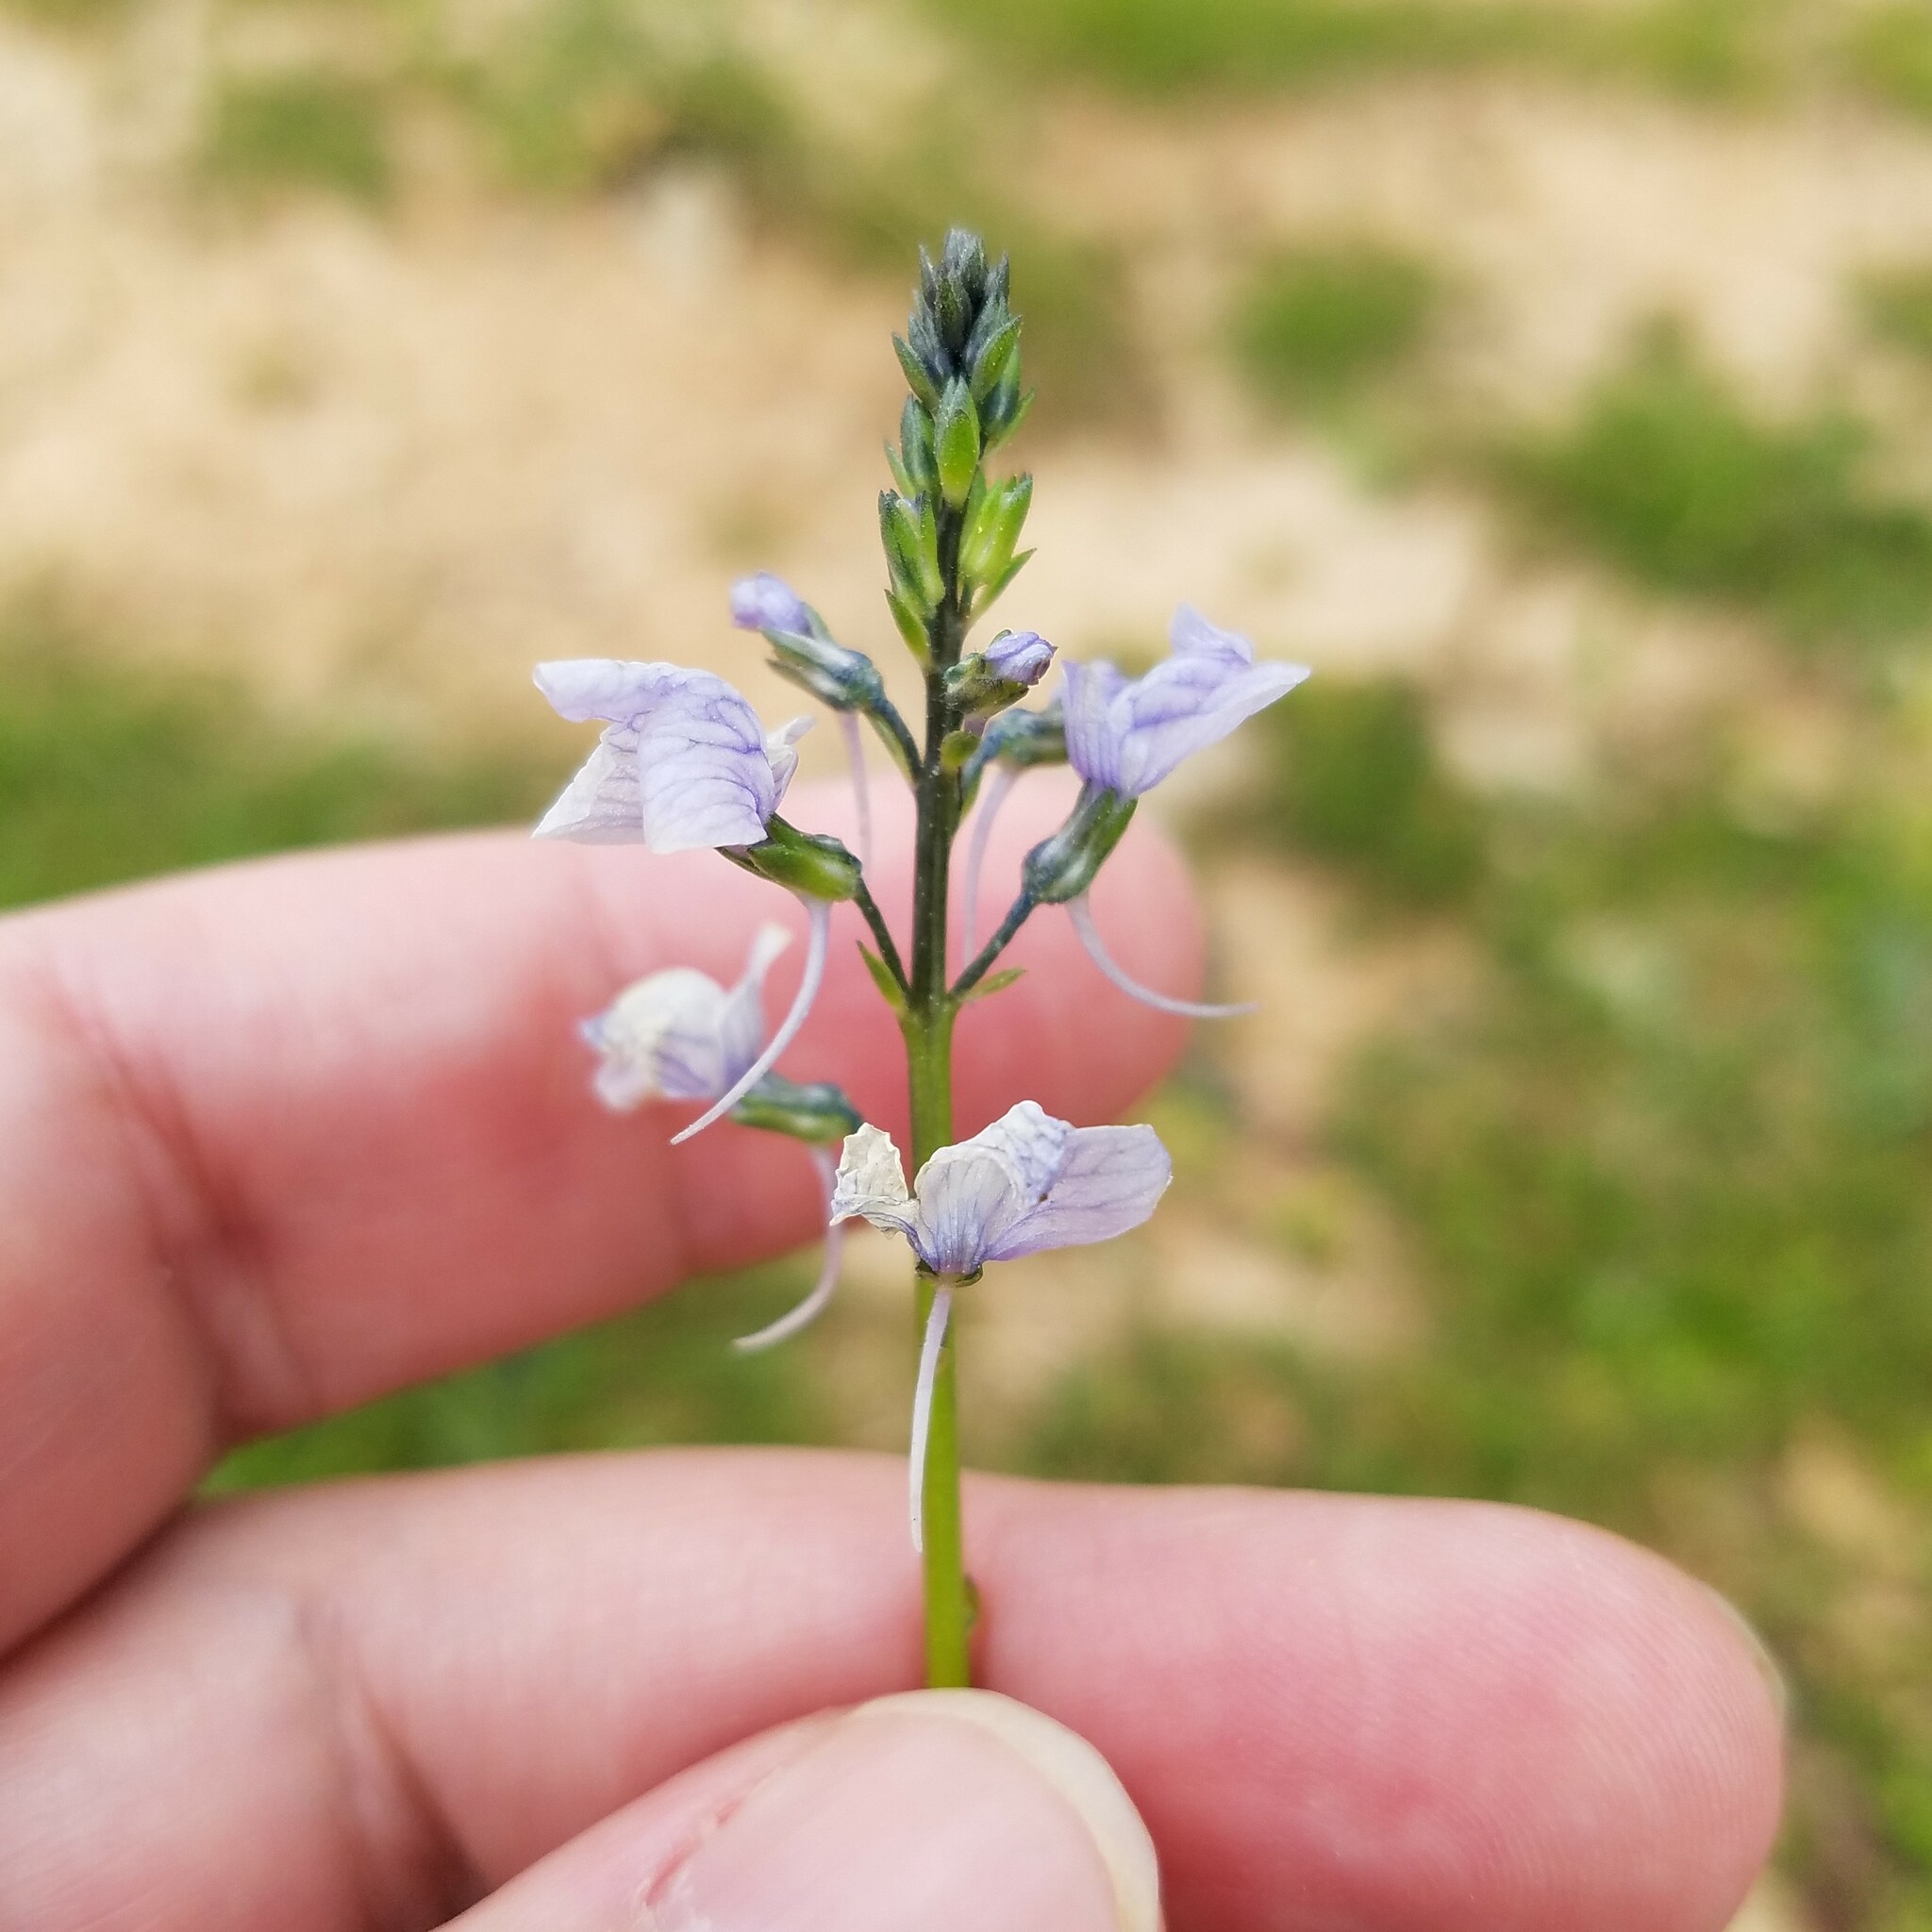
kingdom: Plantae
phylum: Tracheophyta
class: Magnoliopsida
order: Lamiales
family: Plantaginaceae
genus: Nuttallanthus
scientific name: Nuttallanthus texanus
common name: Texas toadflax
